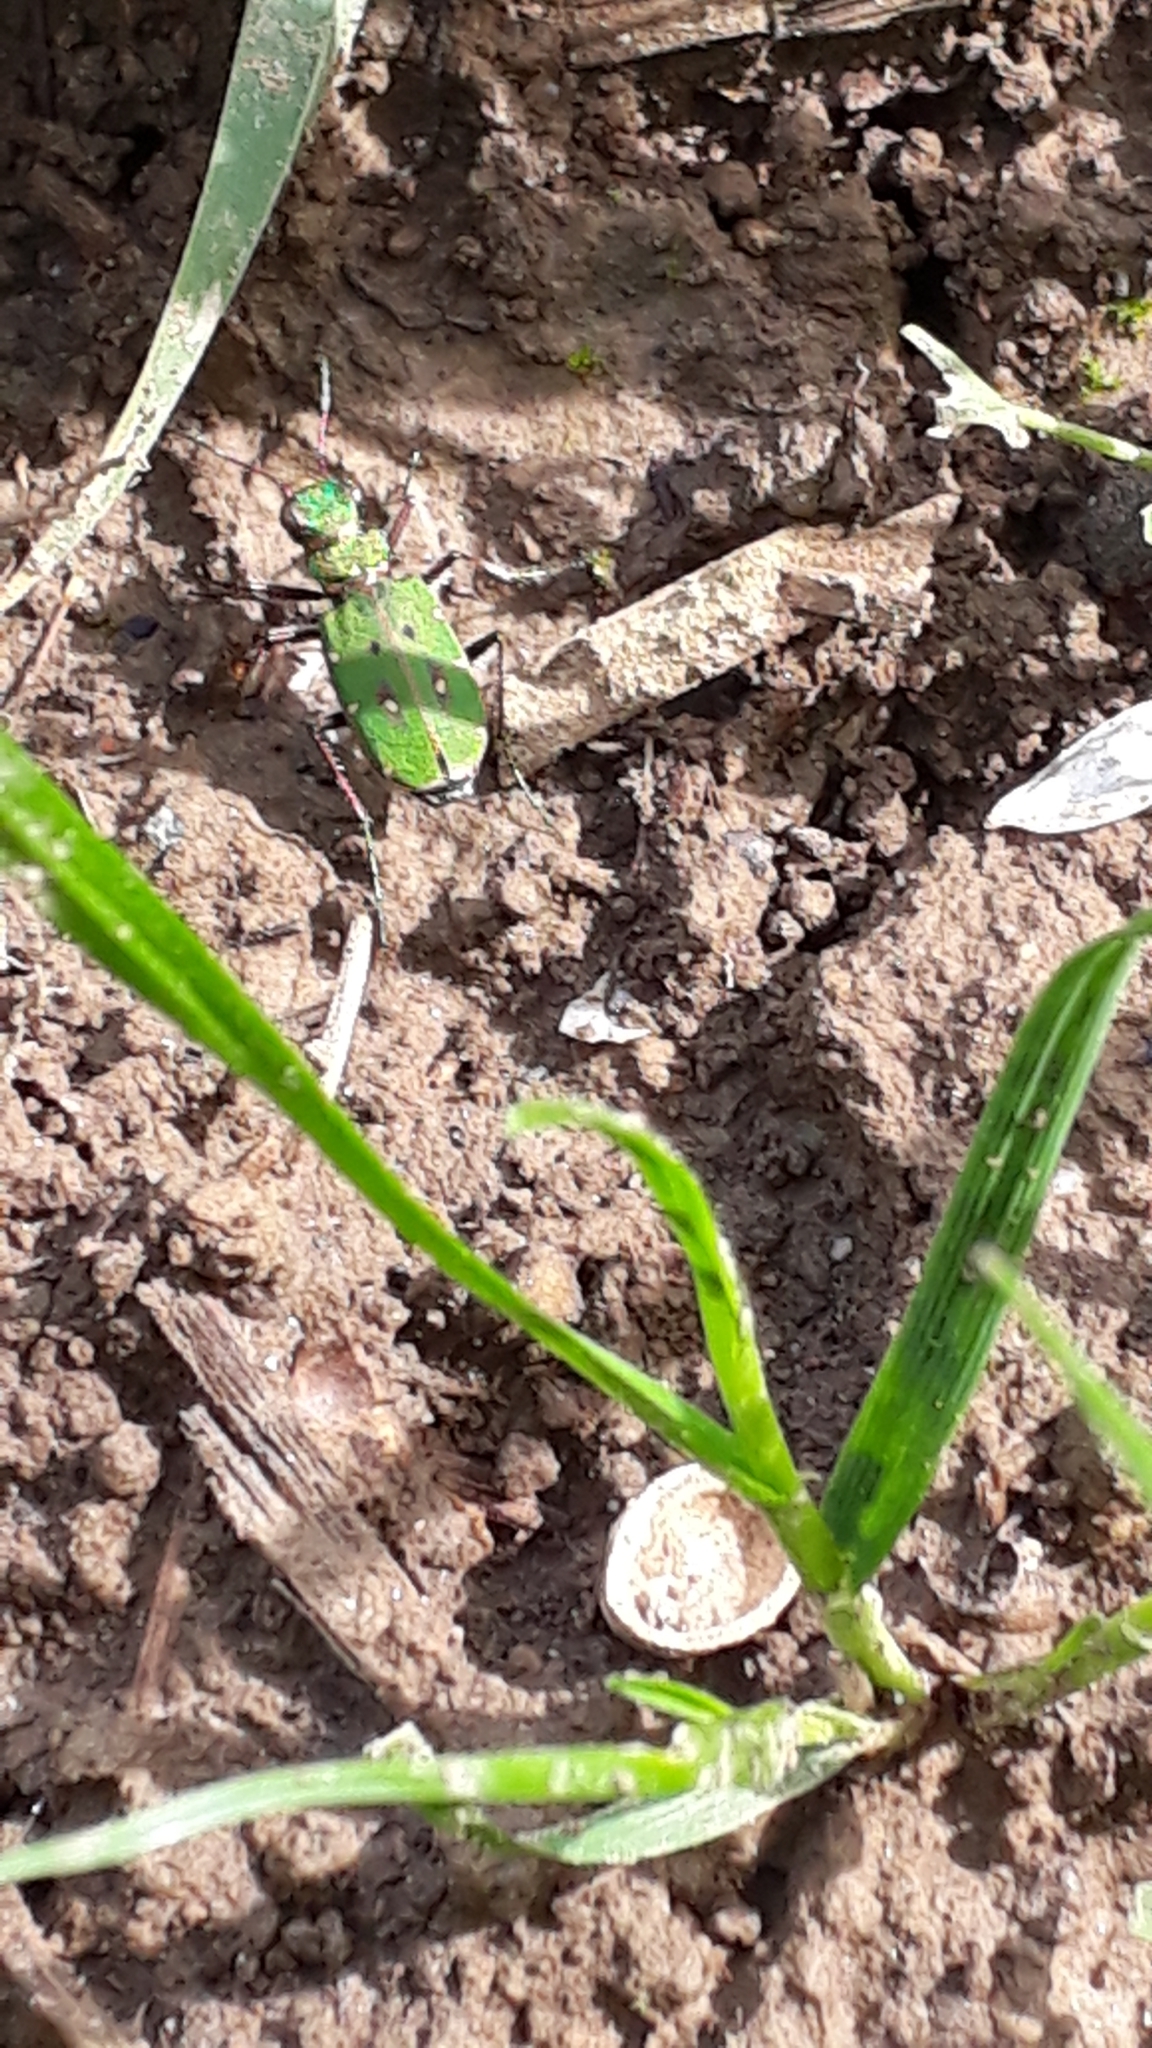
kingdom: Animalia
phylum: Arthropoda
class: Insecta
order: Coleoptera
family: Carabidae
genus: Cicindela
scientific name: Cicindela campestris
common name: Common tiger beetle
